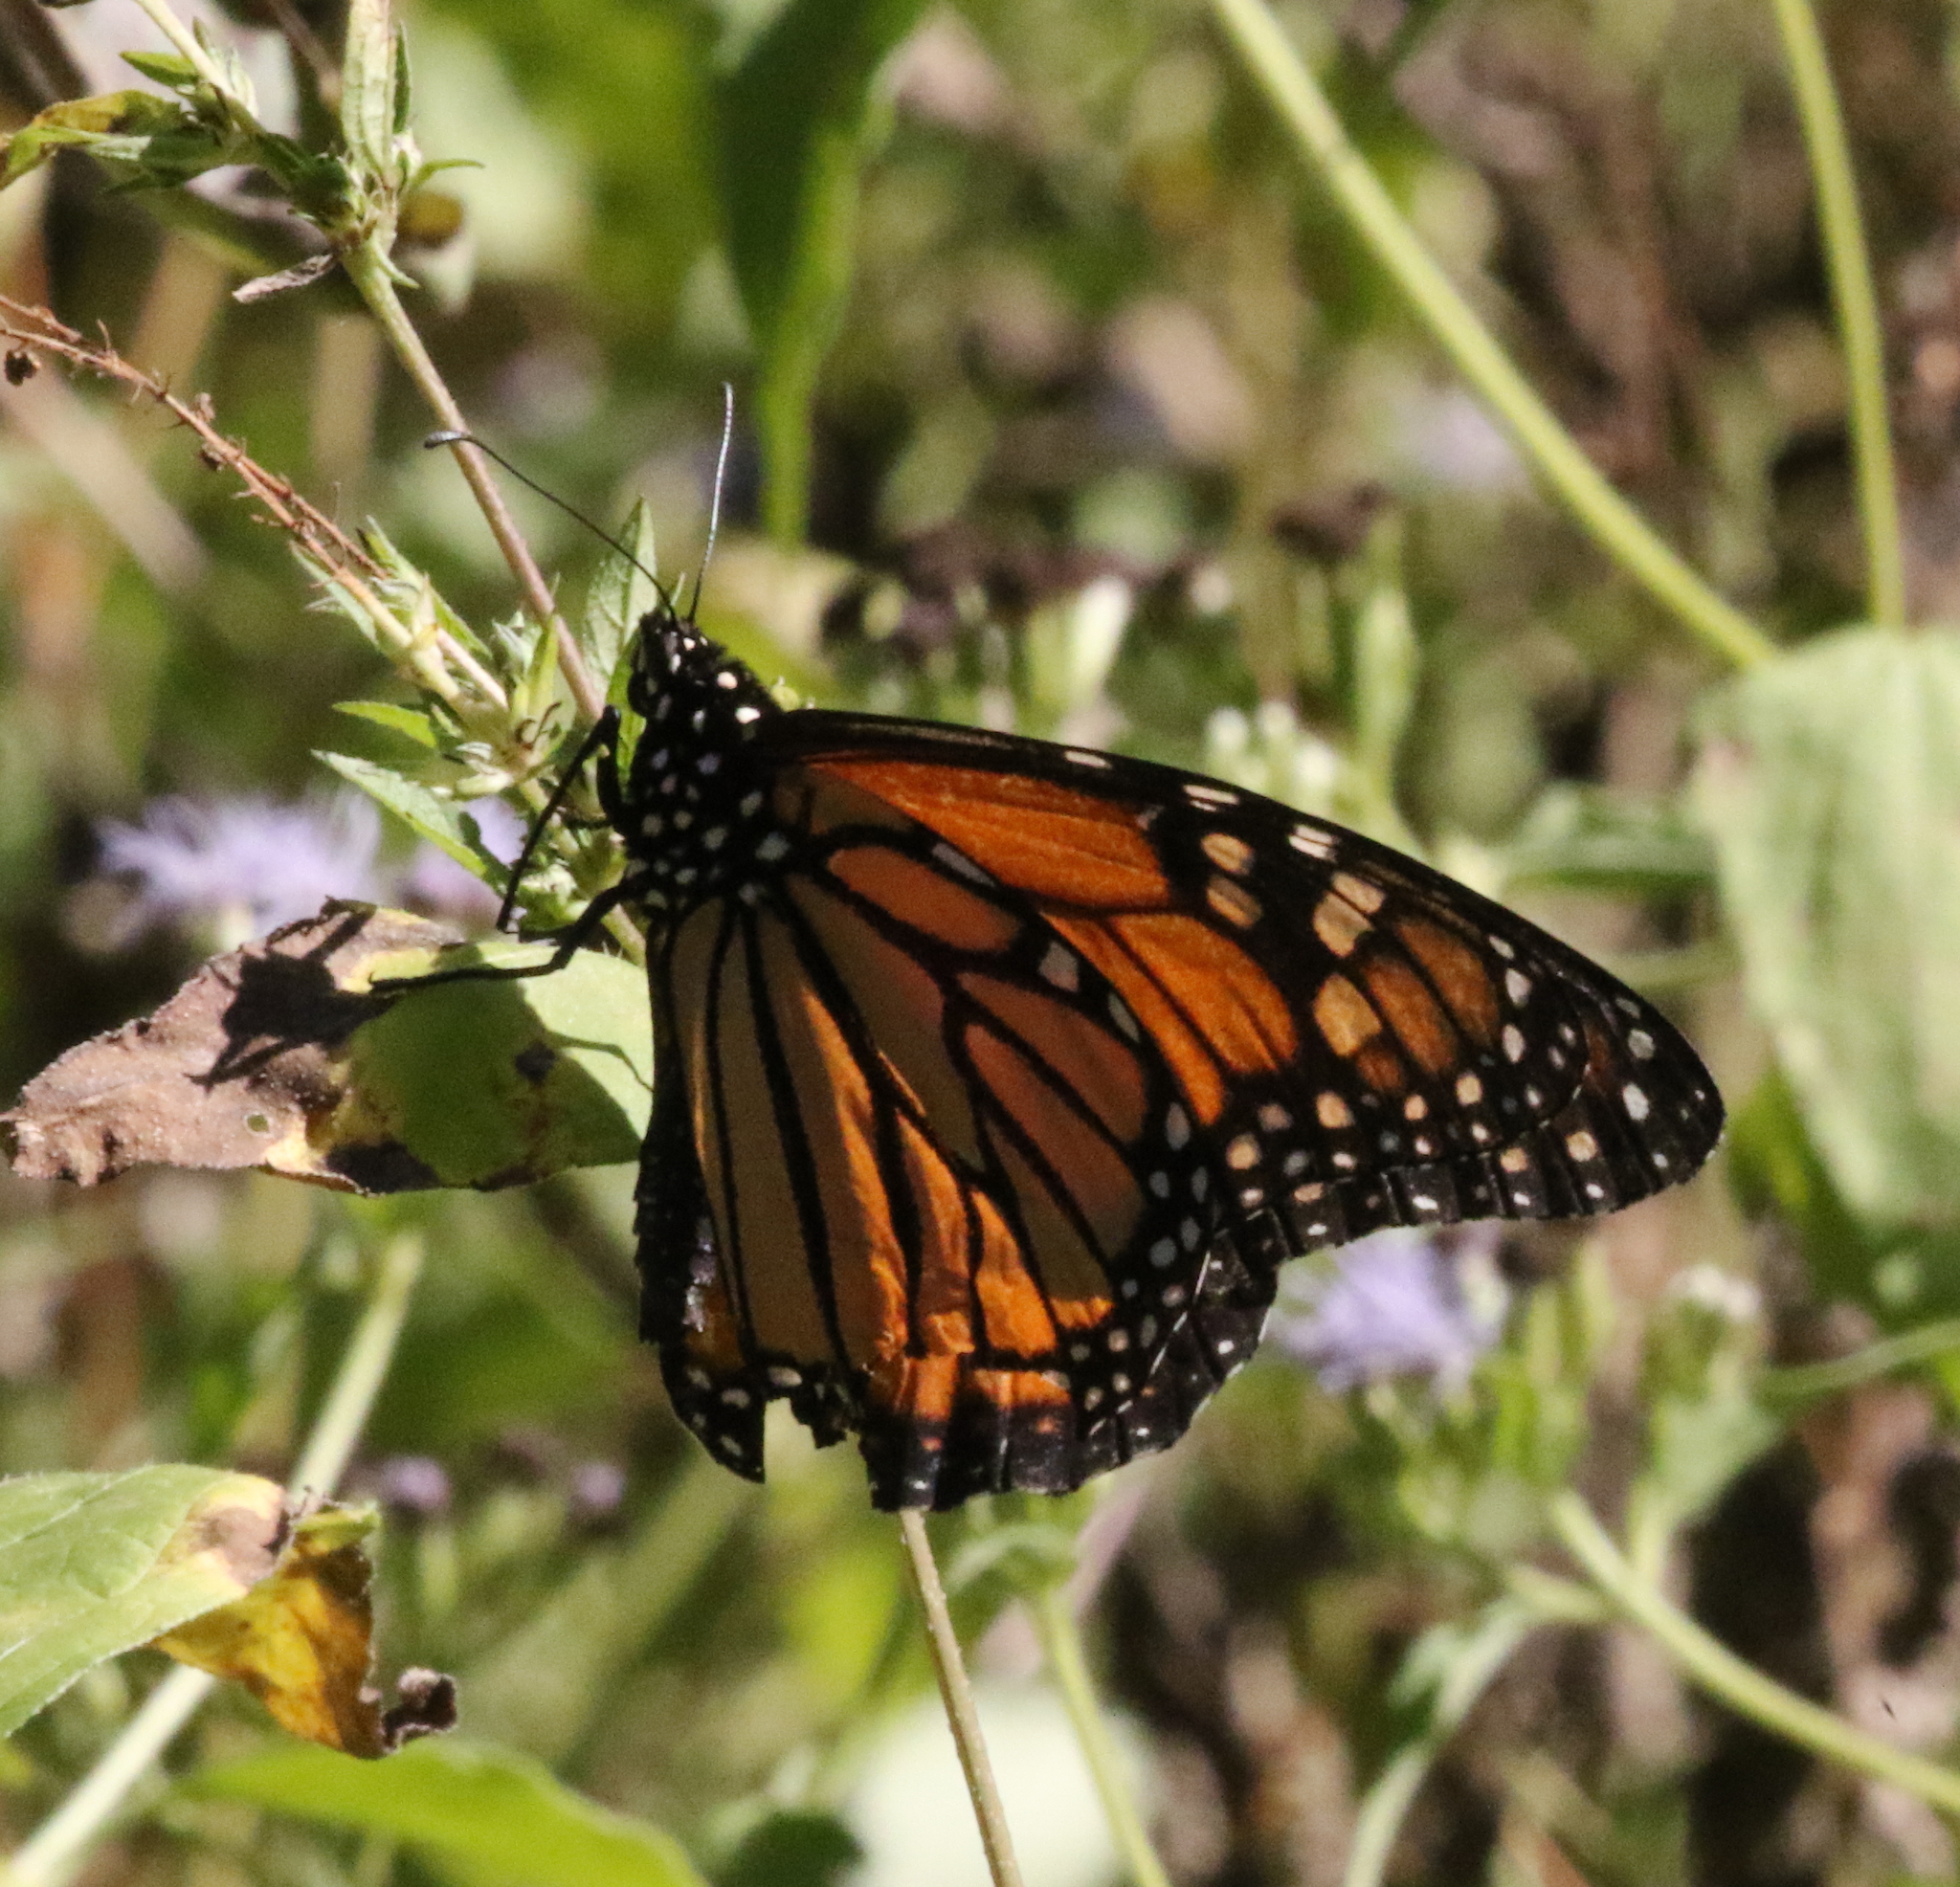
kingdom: Animalia
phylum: Arthropoda
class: Insecta
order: Lepidoptera
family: Nymphalidae
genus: Danaus
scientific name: Danaus plexippus
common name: Monarch
